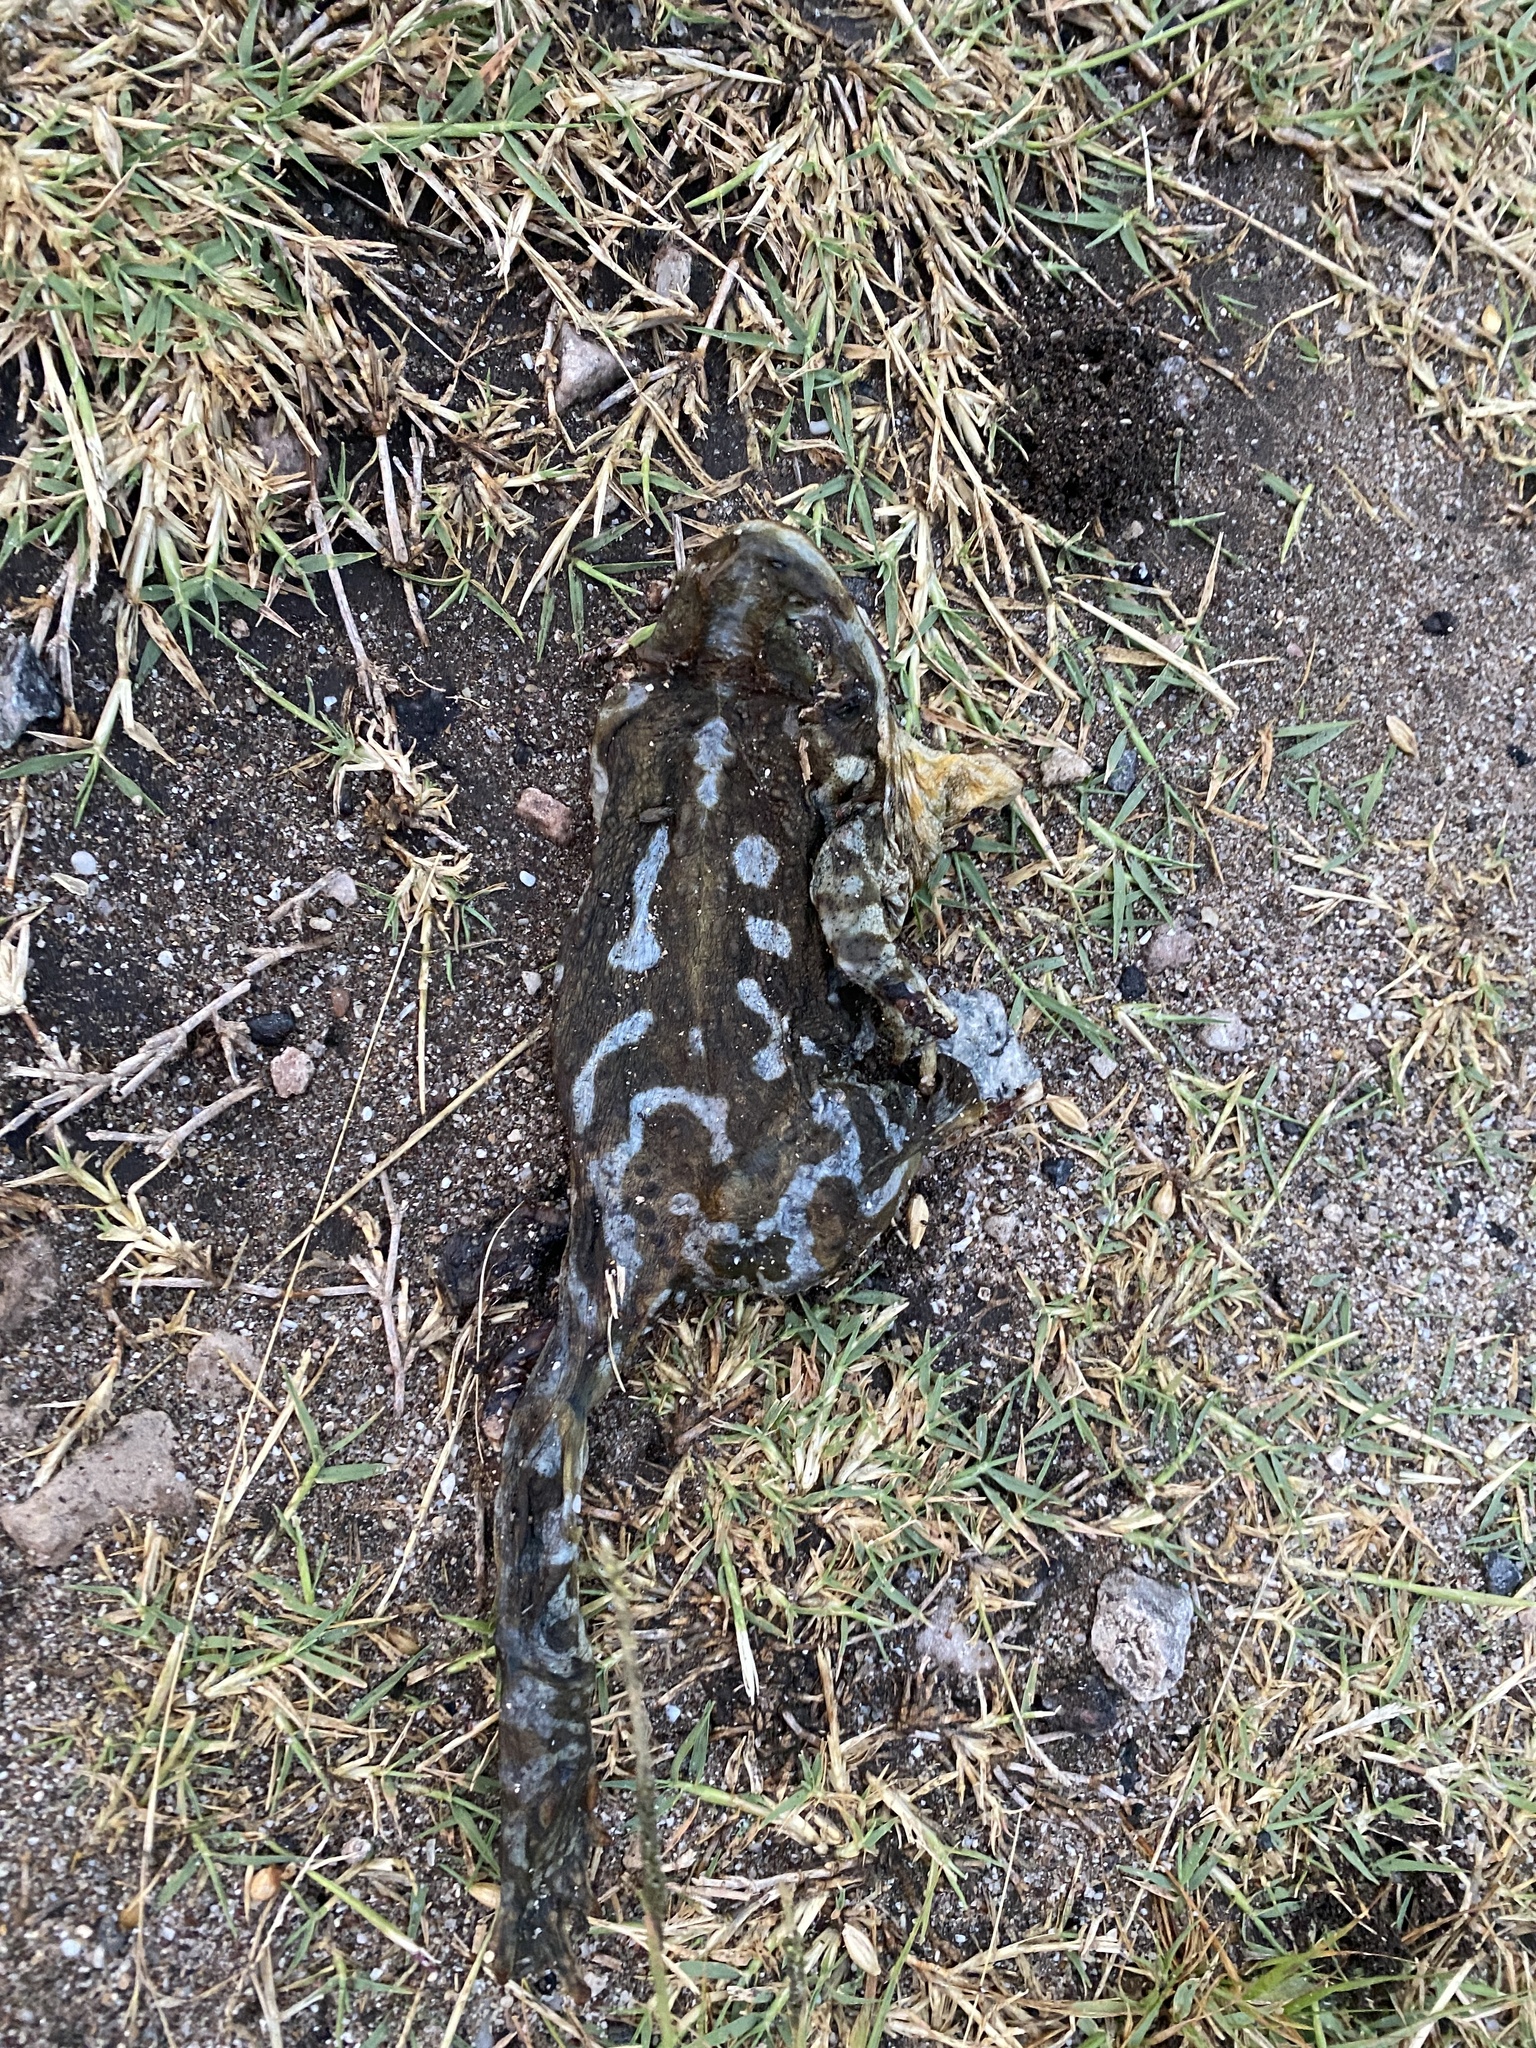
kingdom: Animalia
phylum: Chordata
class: Amphibia
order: Anura
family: Bufonidae
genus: Rhinella
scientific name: Rhinella arenarum
